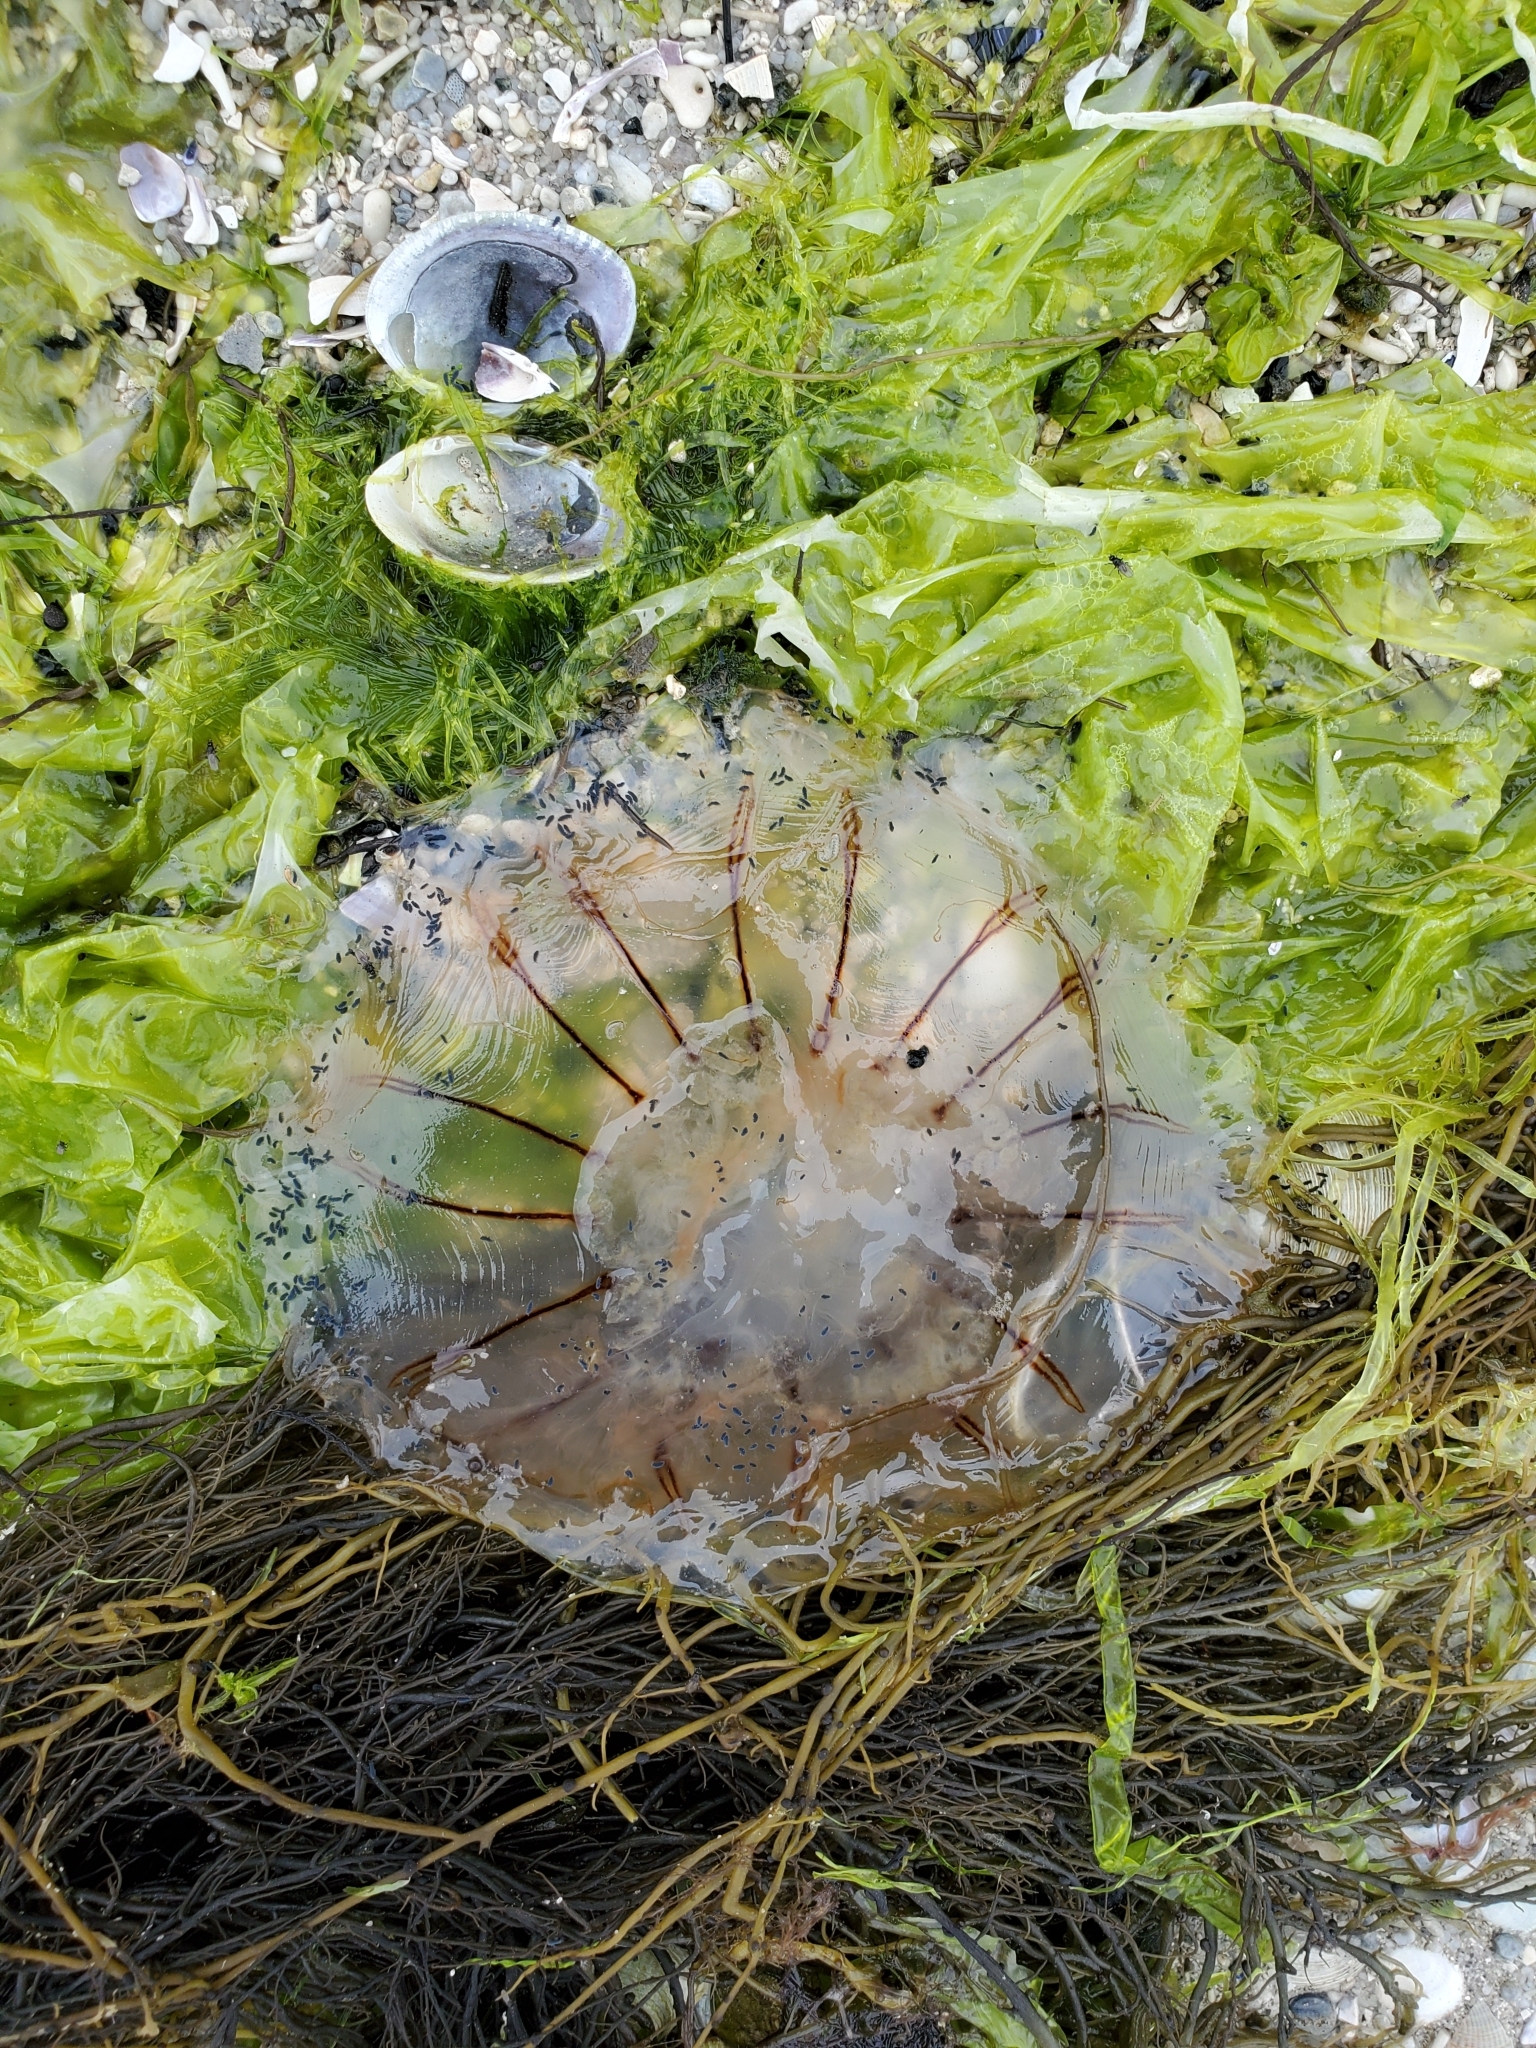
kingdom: Animalia
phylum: Cnidaria
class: Scyphozoa
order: Semaeostomeae
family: Cyaneidae
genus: Desmonema
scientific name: Desmonema gaudichaudi
